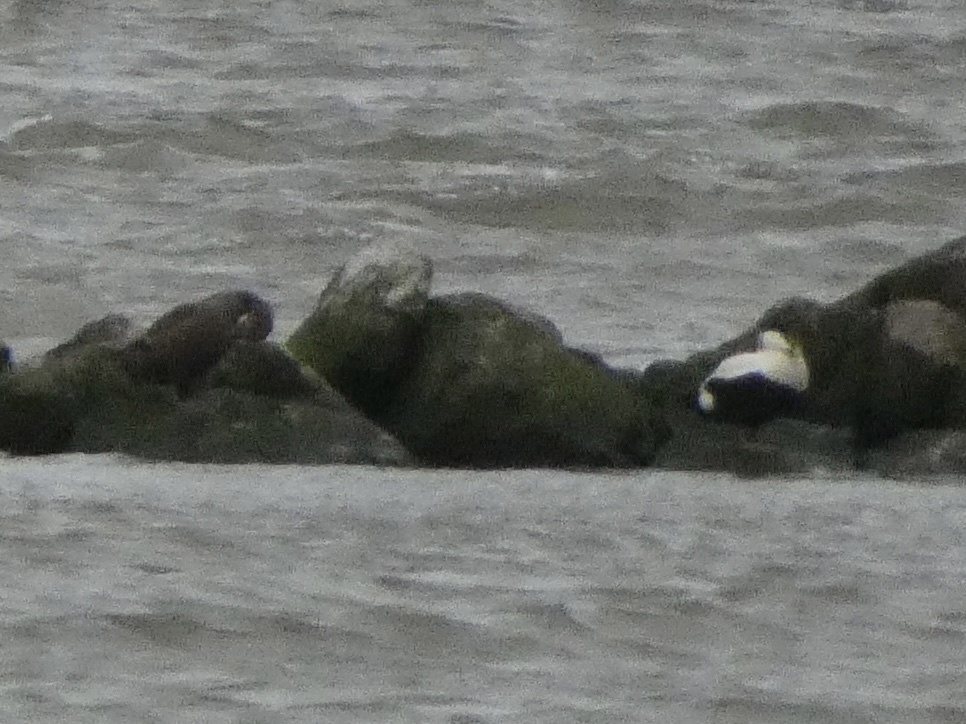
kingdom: Animalia
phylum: Chordata
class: Aves
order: Anseriformes
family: Anatidae
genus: Somateria
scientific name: Somateria mollissima
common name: Common eider
